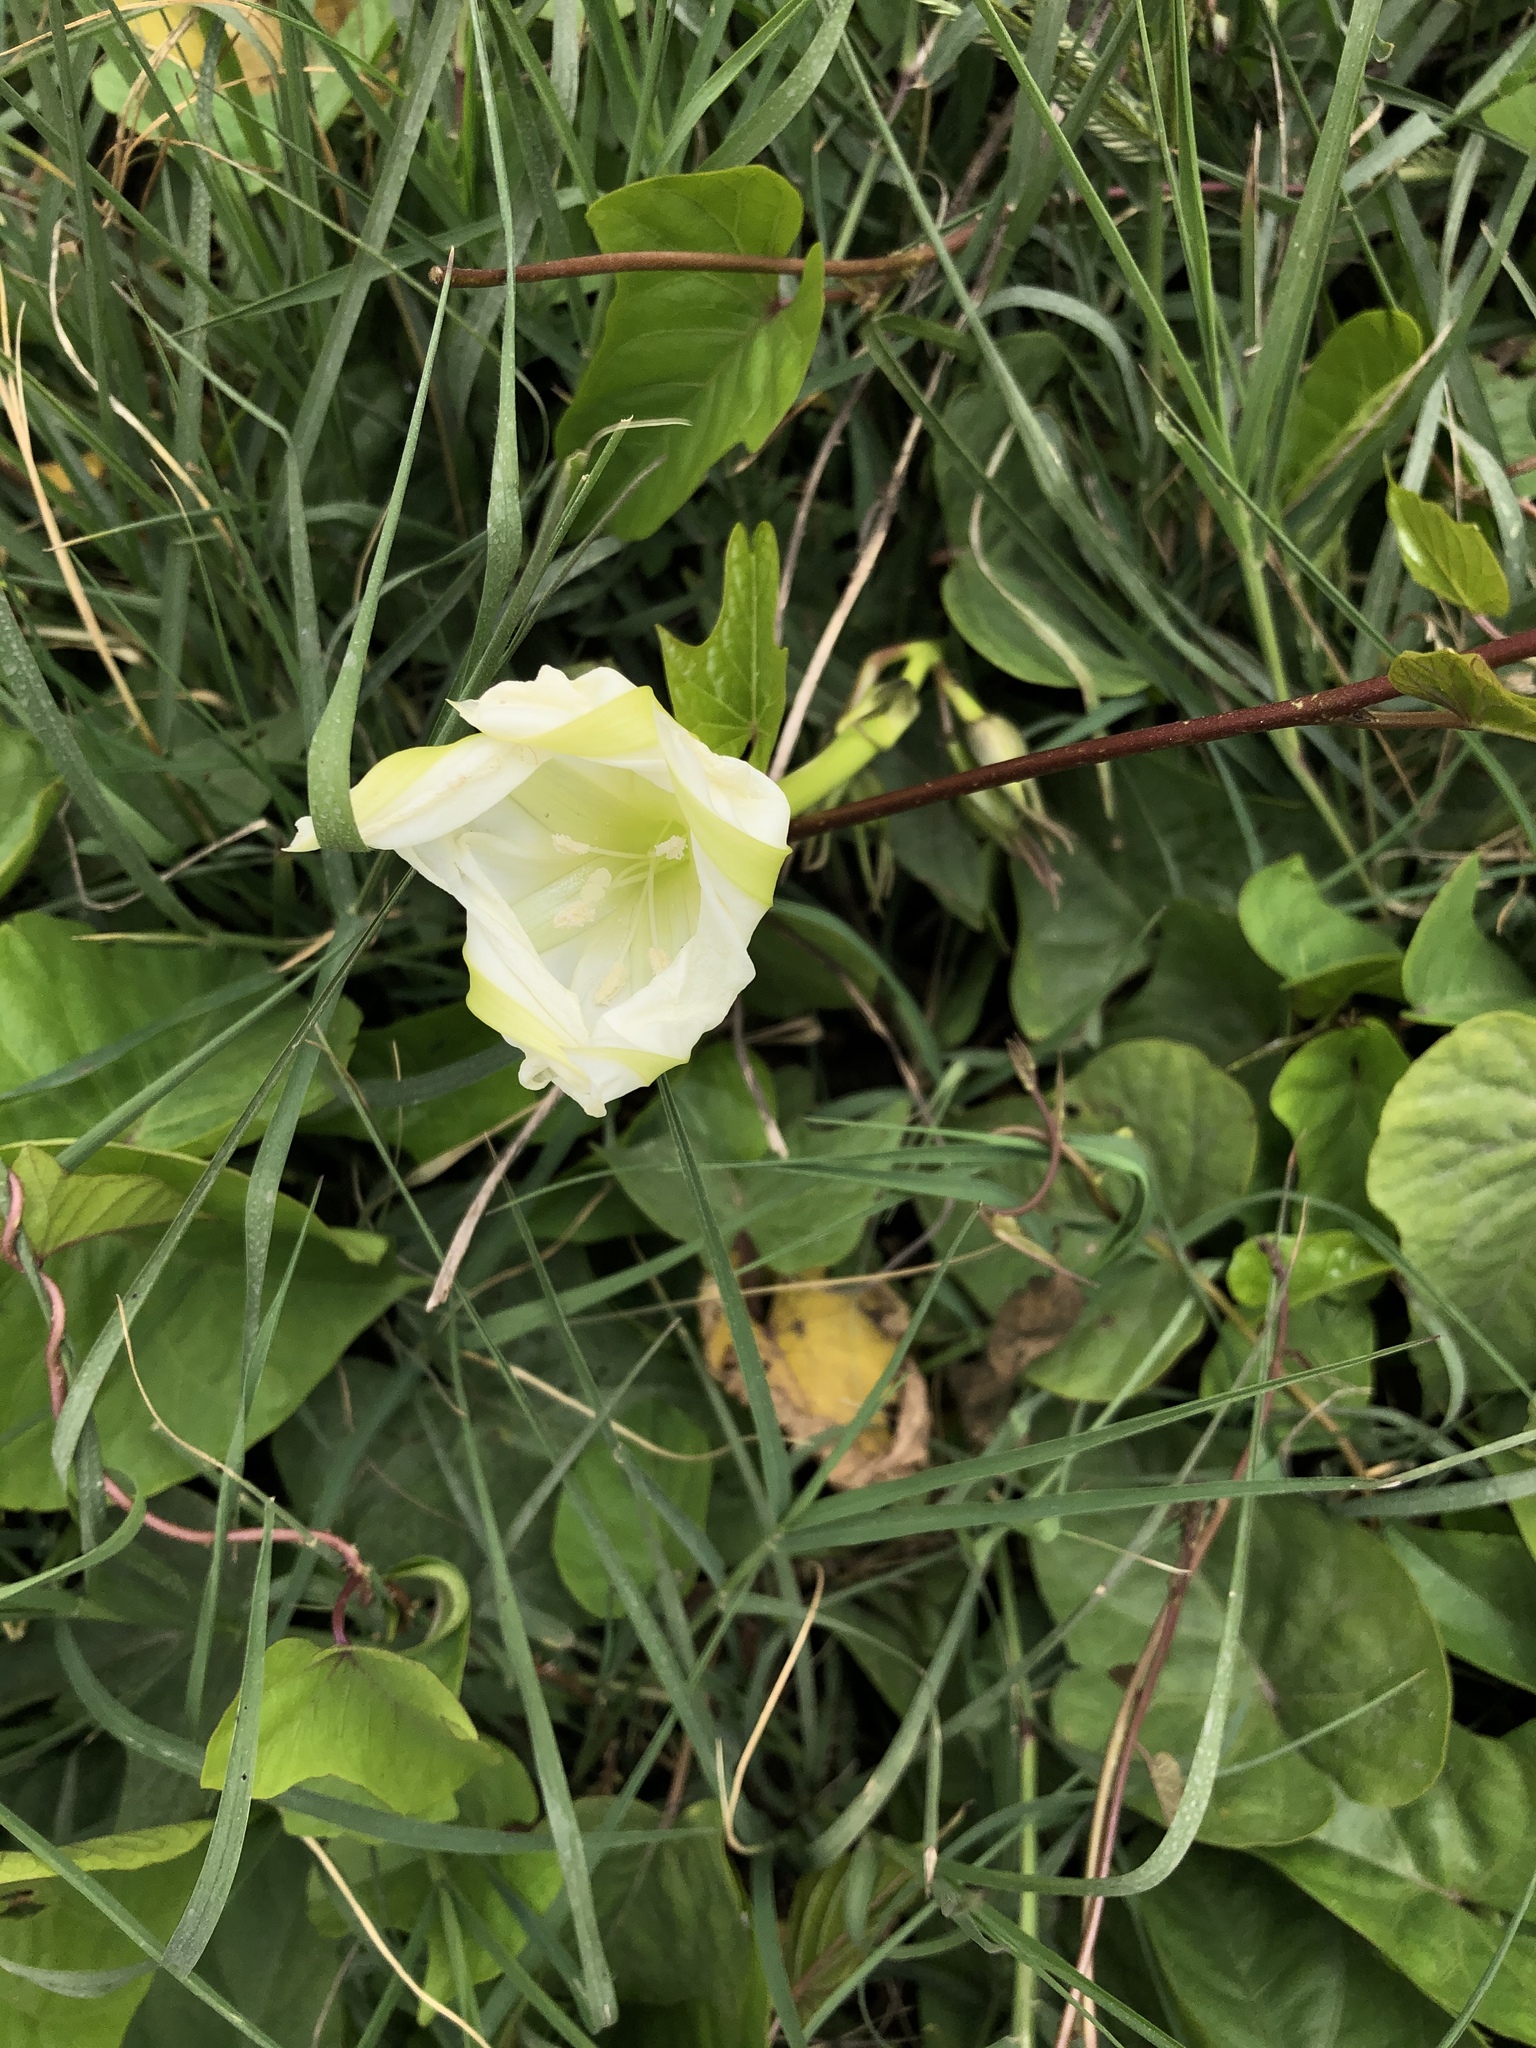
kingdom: Plantae
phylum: Tracheophyta
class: Magnoliopsida
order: Solanales
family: Convolvulaceae
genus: Ipomoea
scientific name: Ipomoea alba
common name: Moonflower
